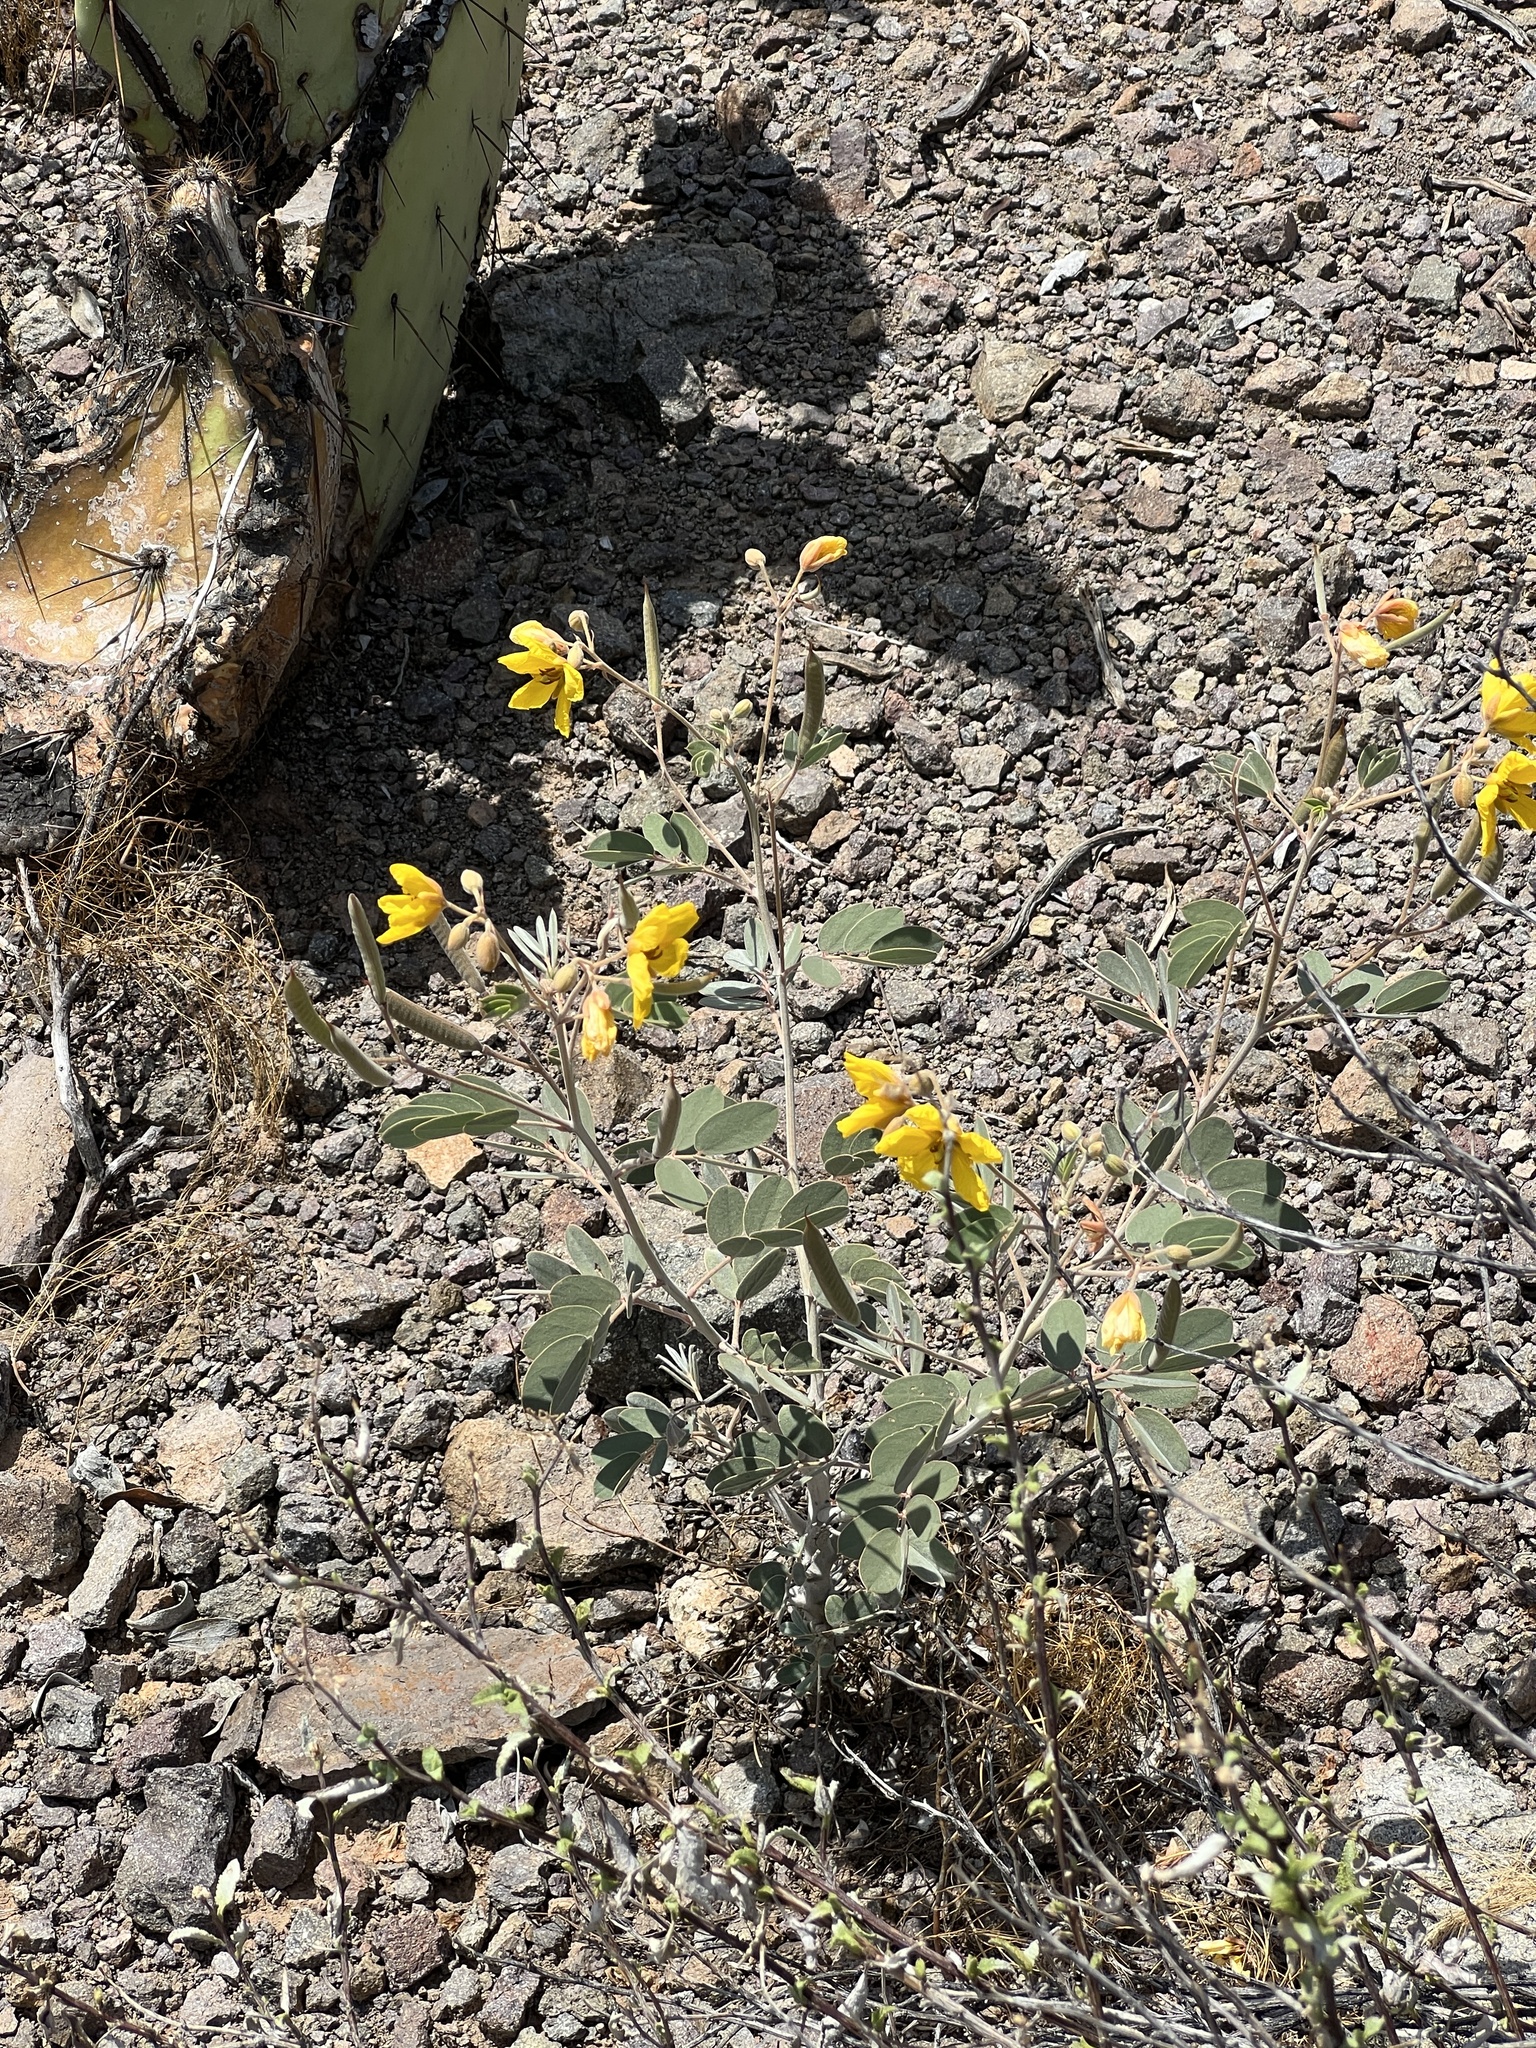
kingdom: Plantae
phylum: Tracheophyta
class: Magnoliopsida
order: Fabales
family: Fabaceae
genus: Senna
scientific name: Senna covesii
